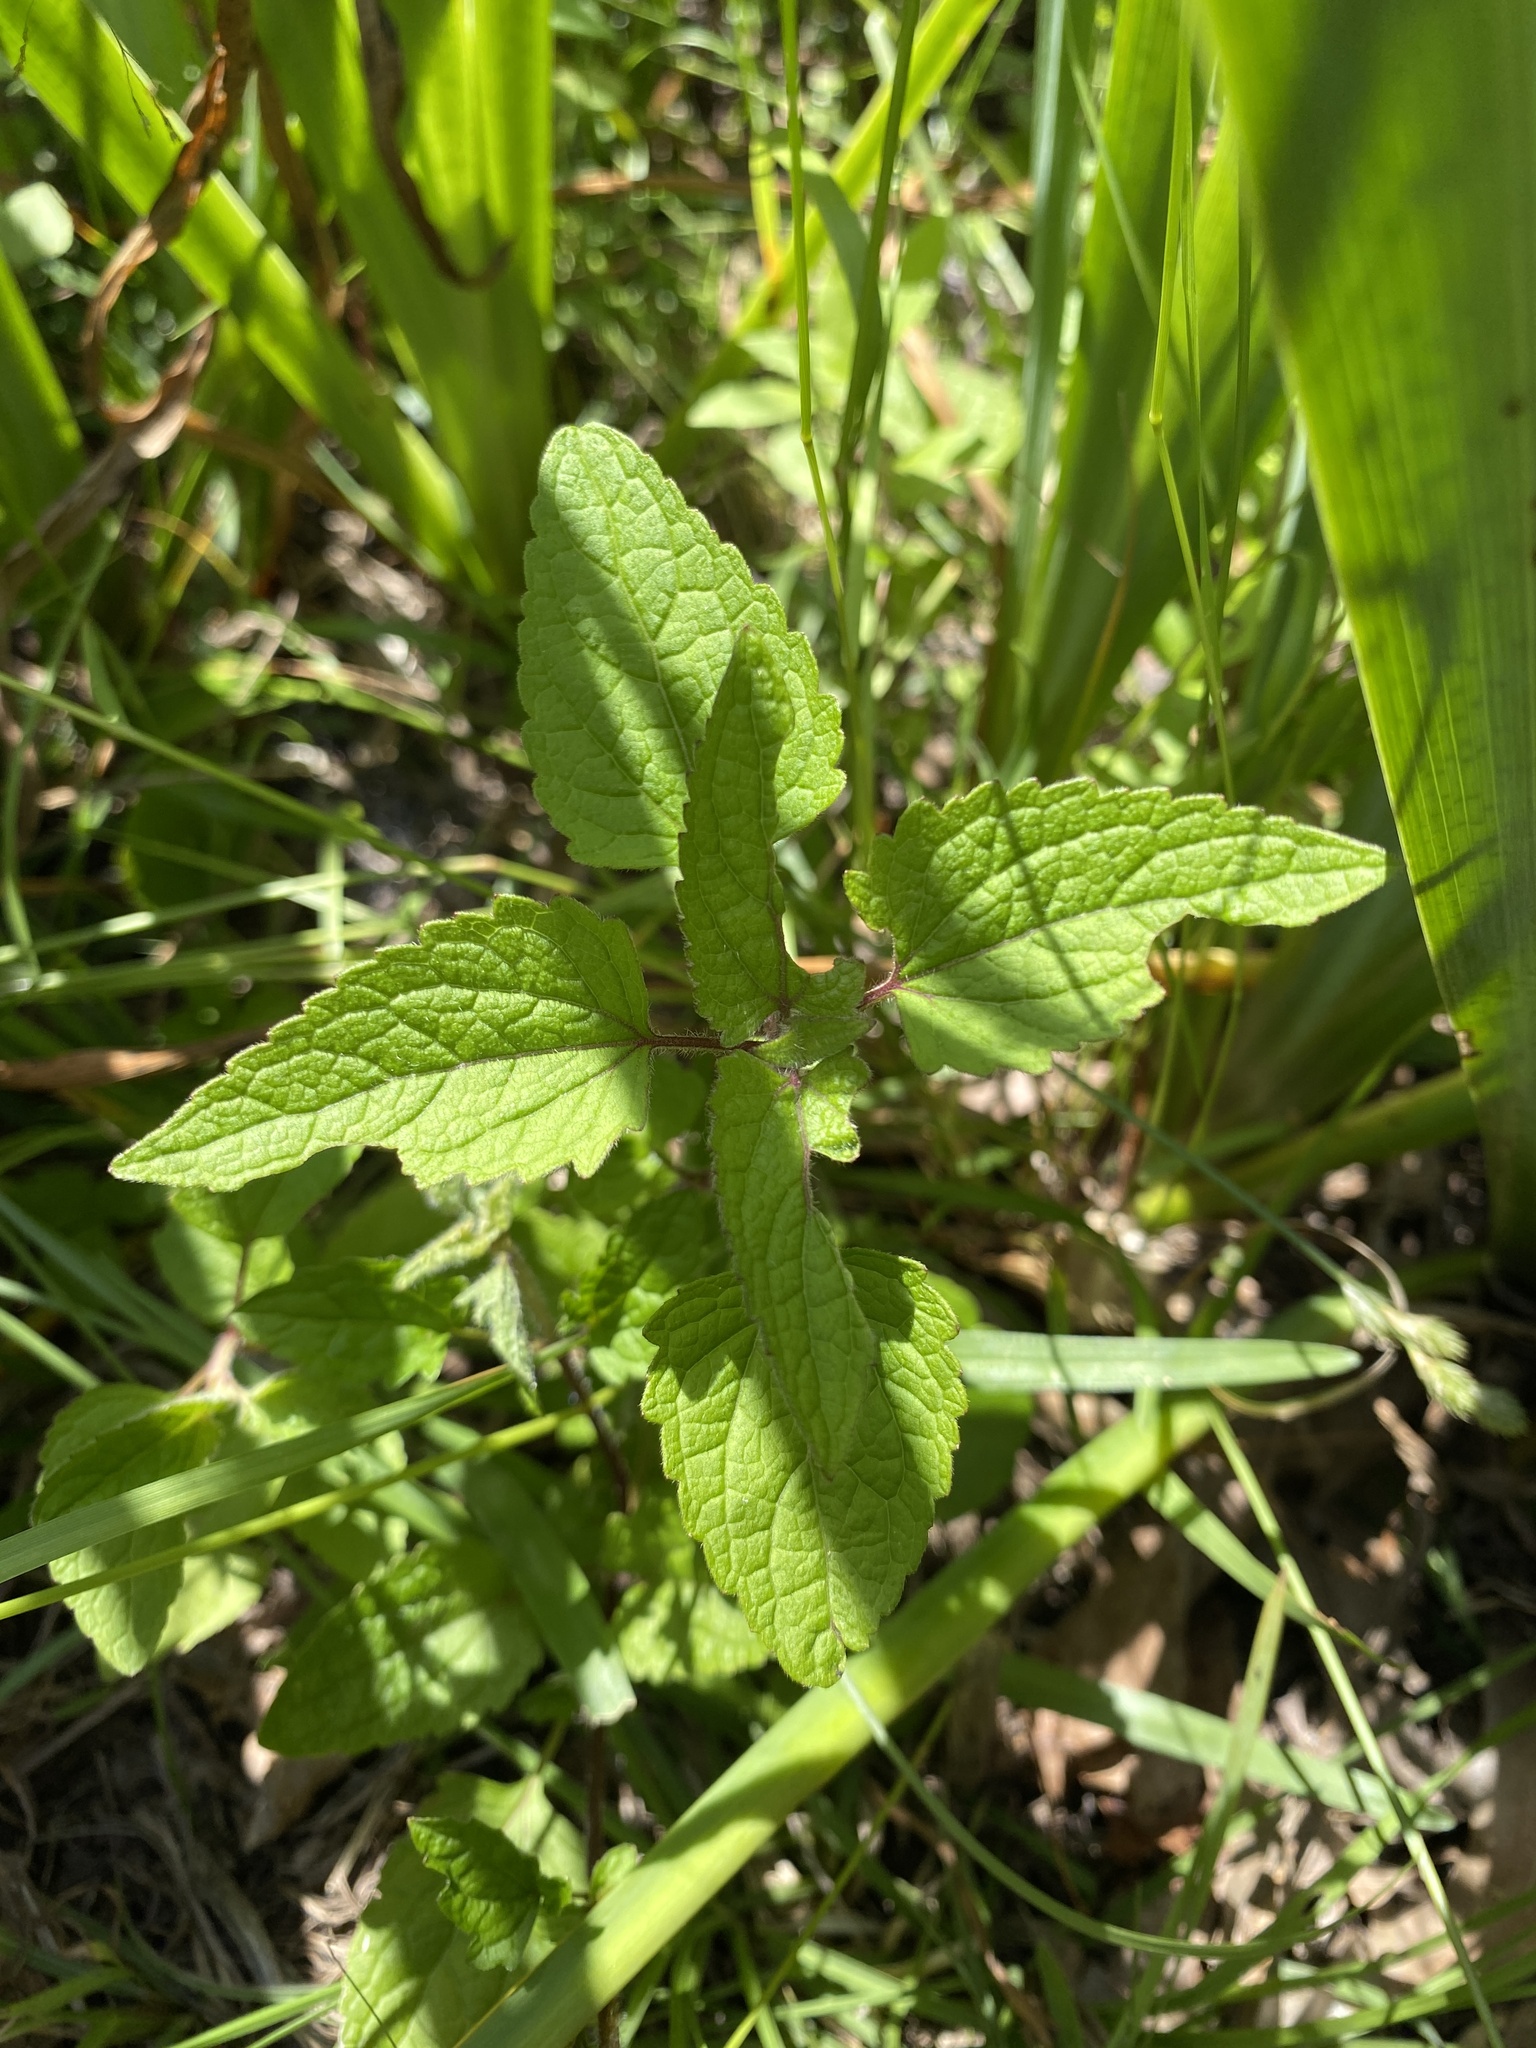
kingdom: Plantae
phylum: Tracheophyta
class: Magnoliopsida
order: Asterales
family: Asteraceae
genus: Conoclinium
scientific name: Conoclinium coelestinum
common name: Blue mistflower
